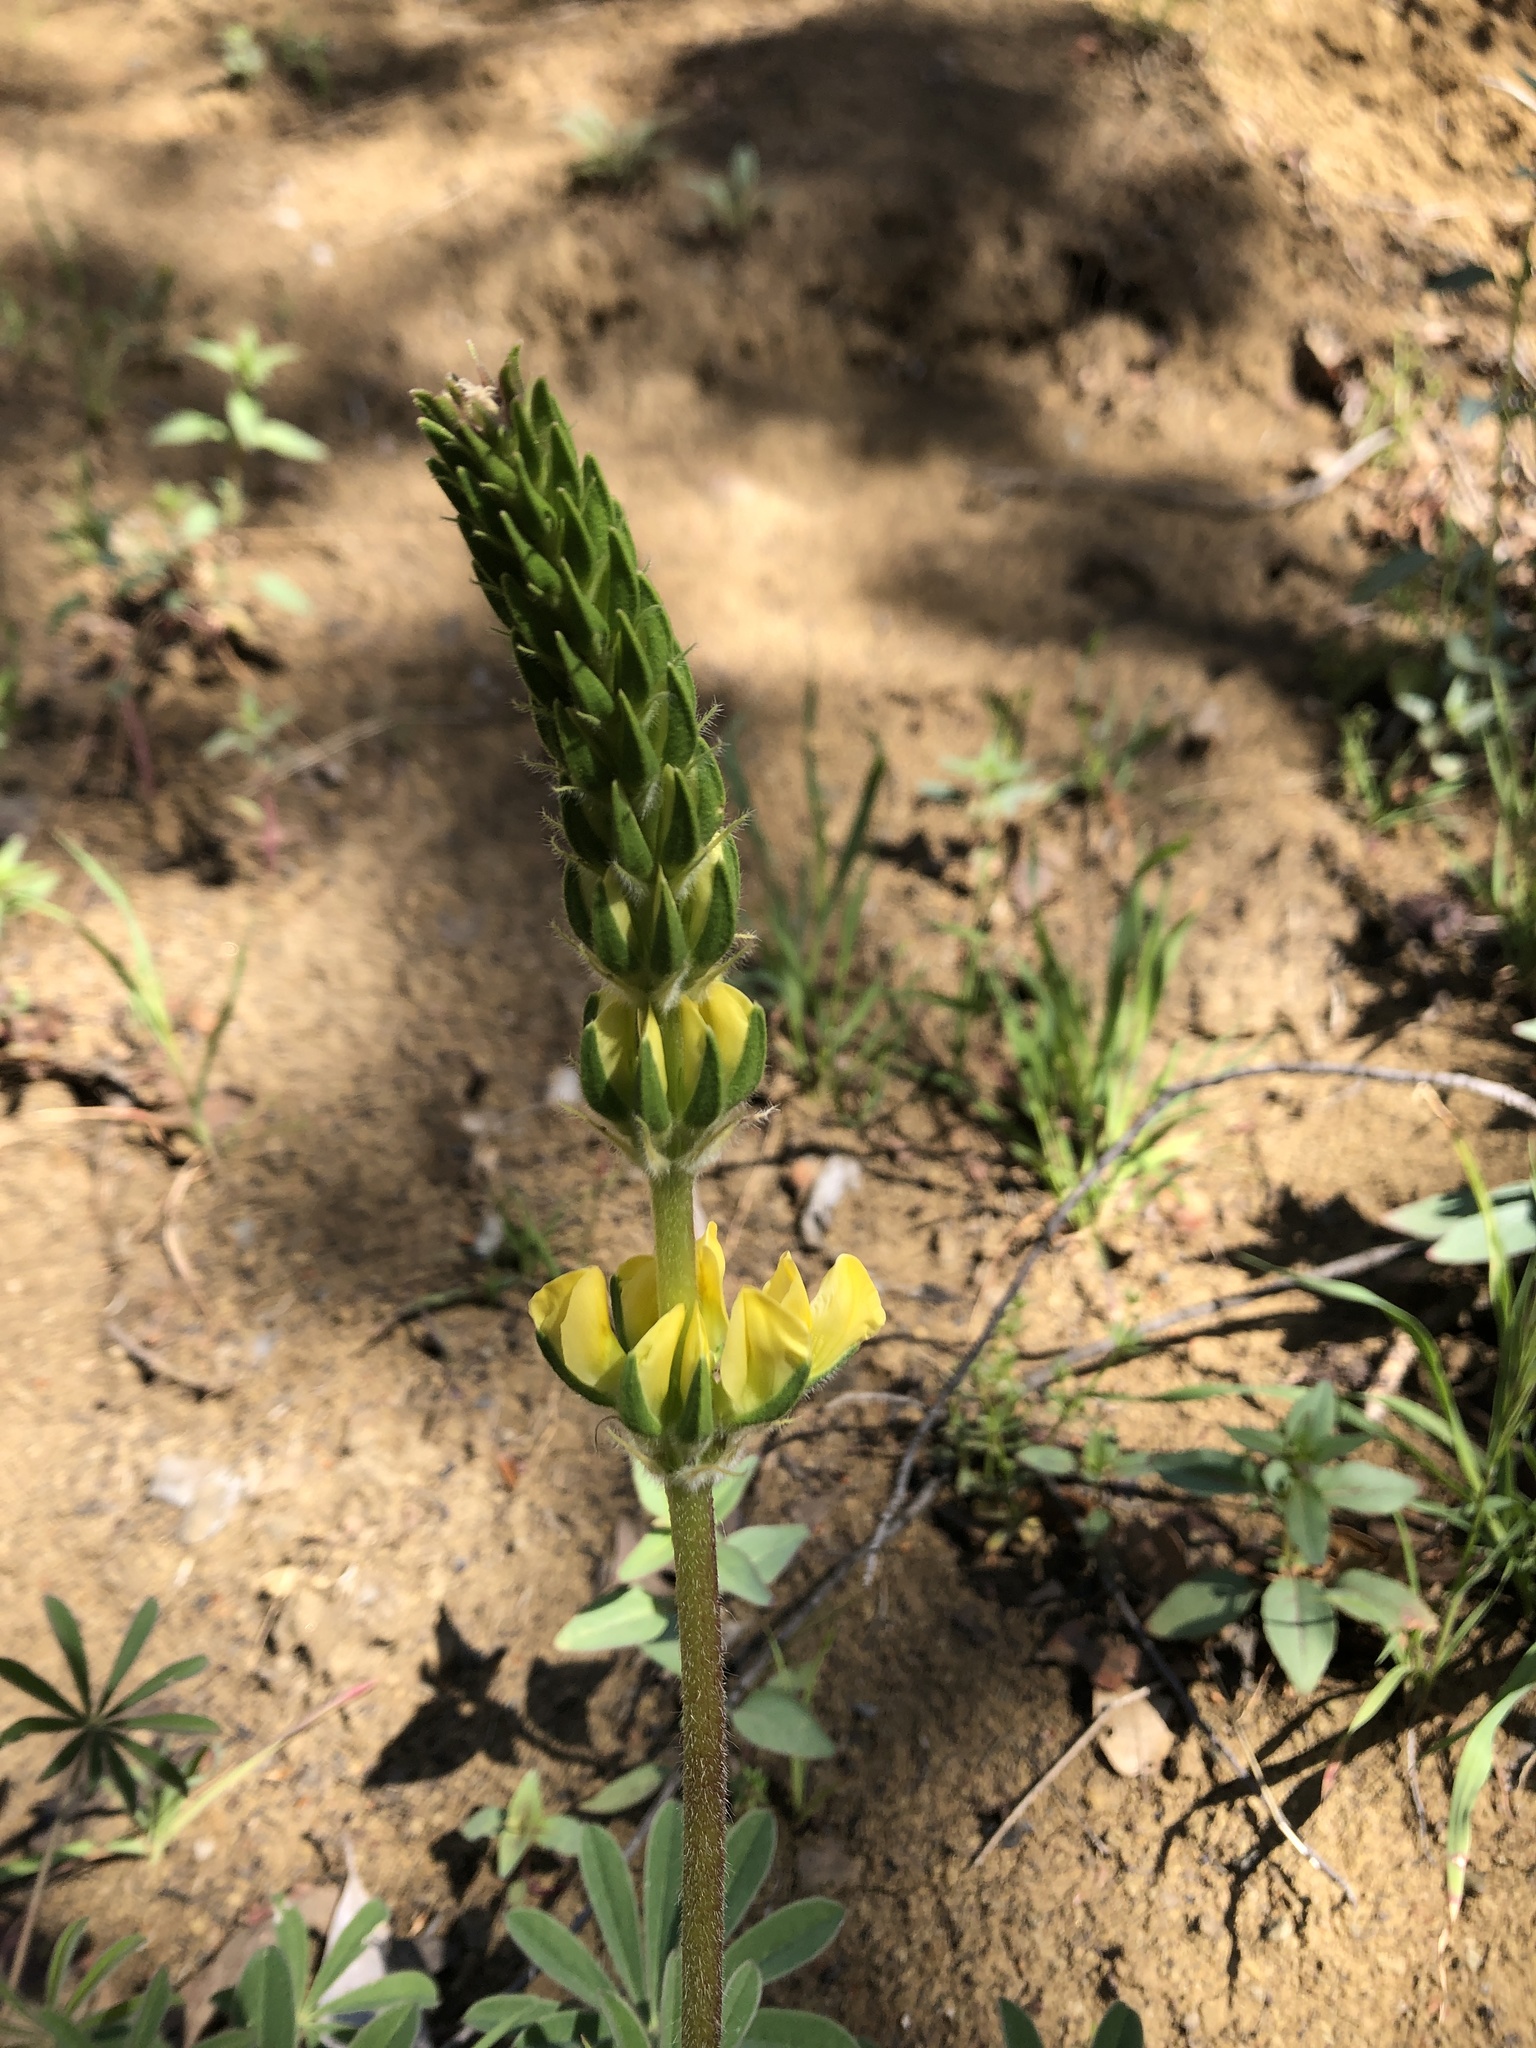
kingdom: Plantae
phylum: Tracheophyta
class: Magnoliopsida
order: Fabales
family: Fabaceae
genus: Lupinus
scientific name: Lupinus luteolus
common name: Butter lupine
